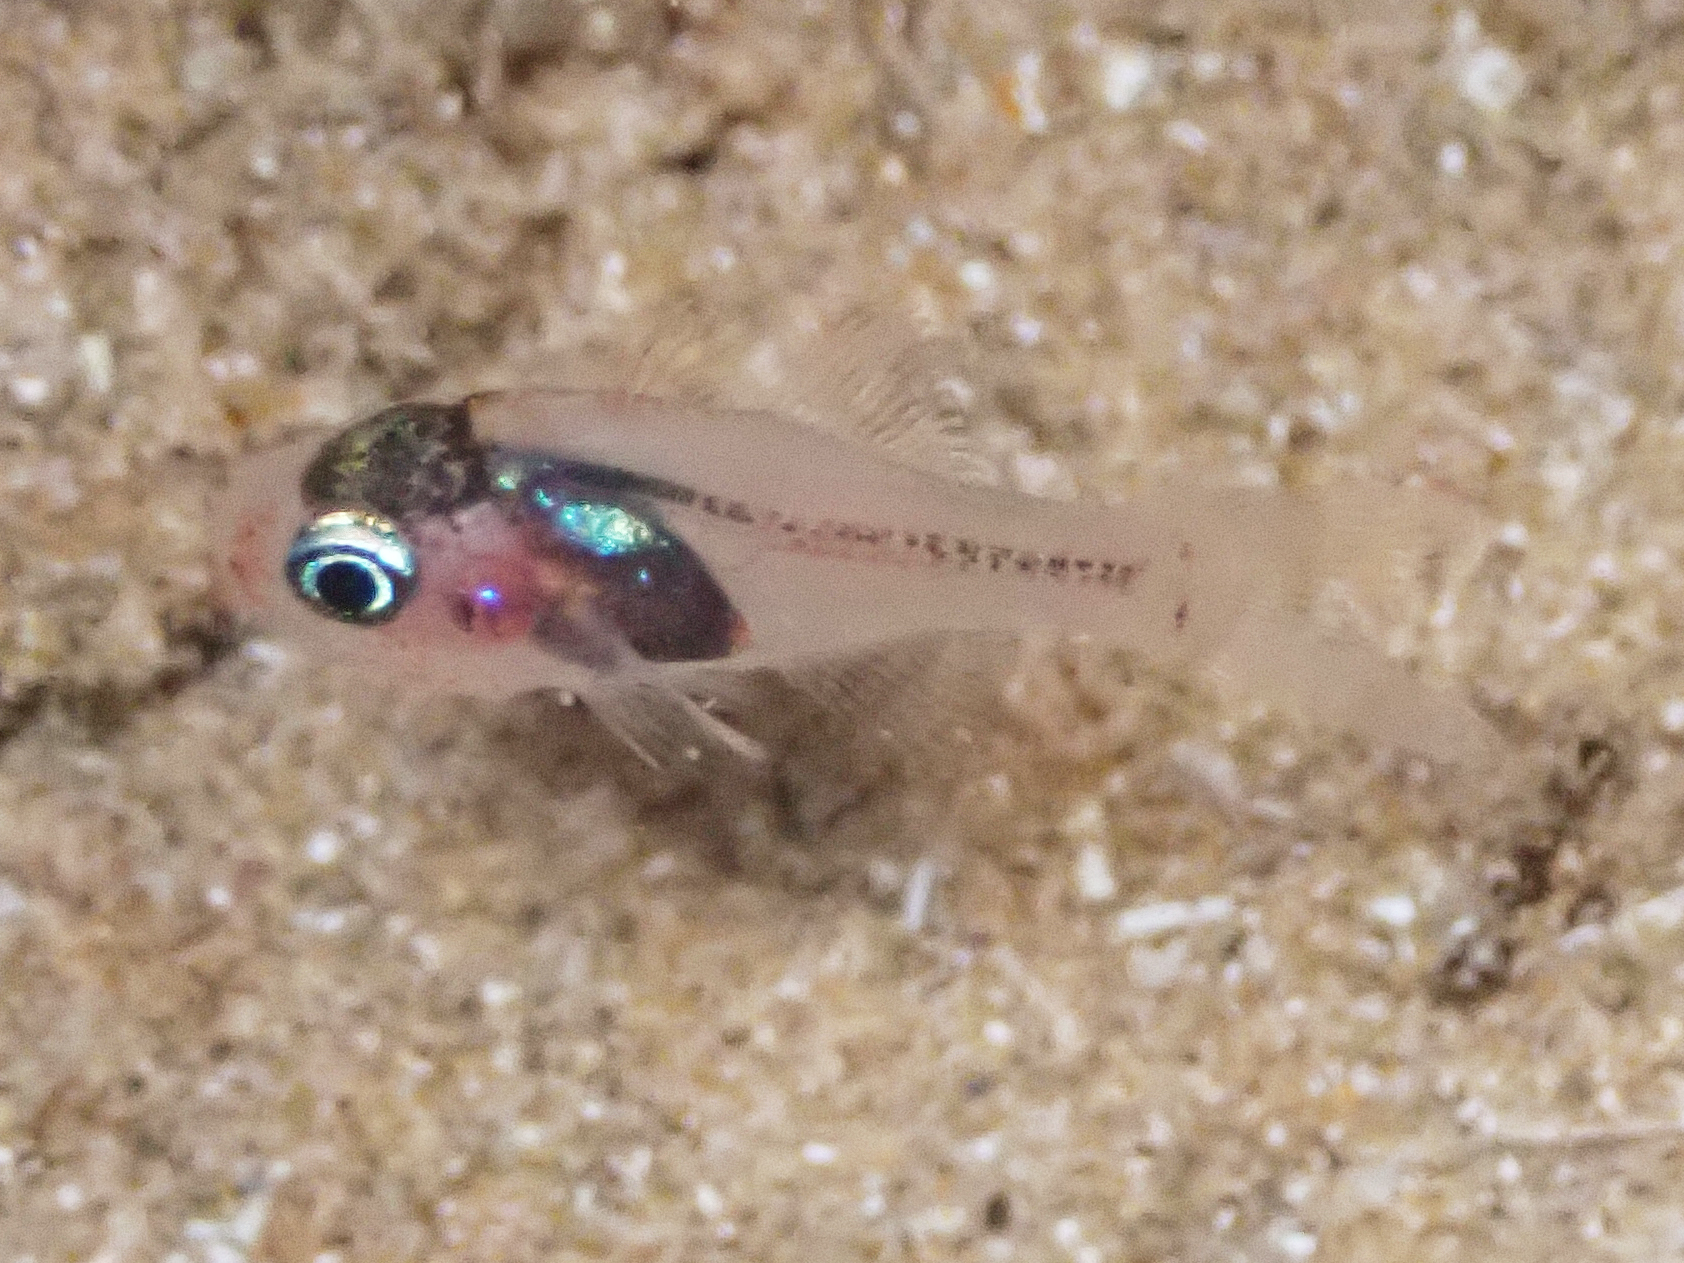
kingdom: Animalia
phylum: Chordata
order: Perciformes
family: Apogonidae
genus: Apogon
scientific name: Apogon erythrinus
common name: Ruby cardinalfish
